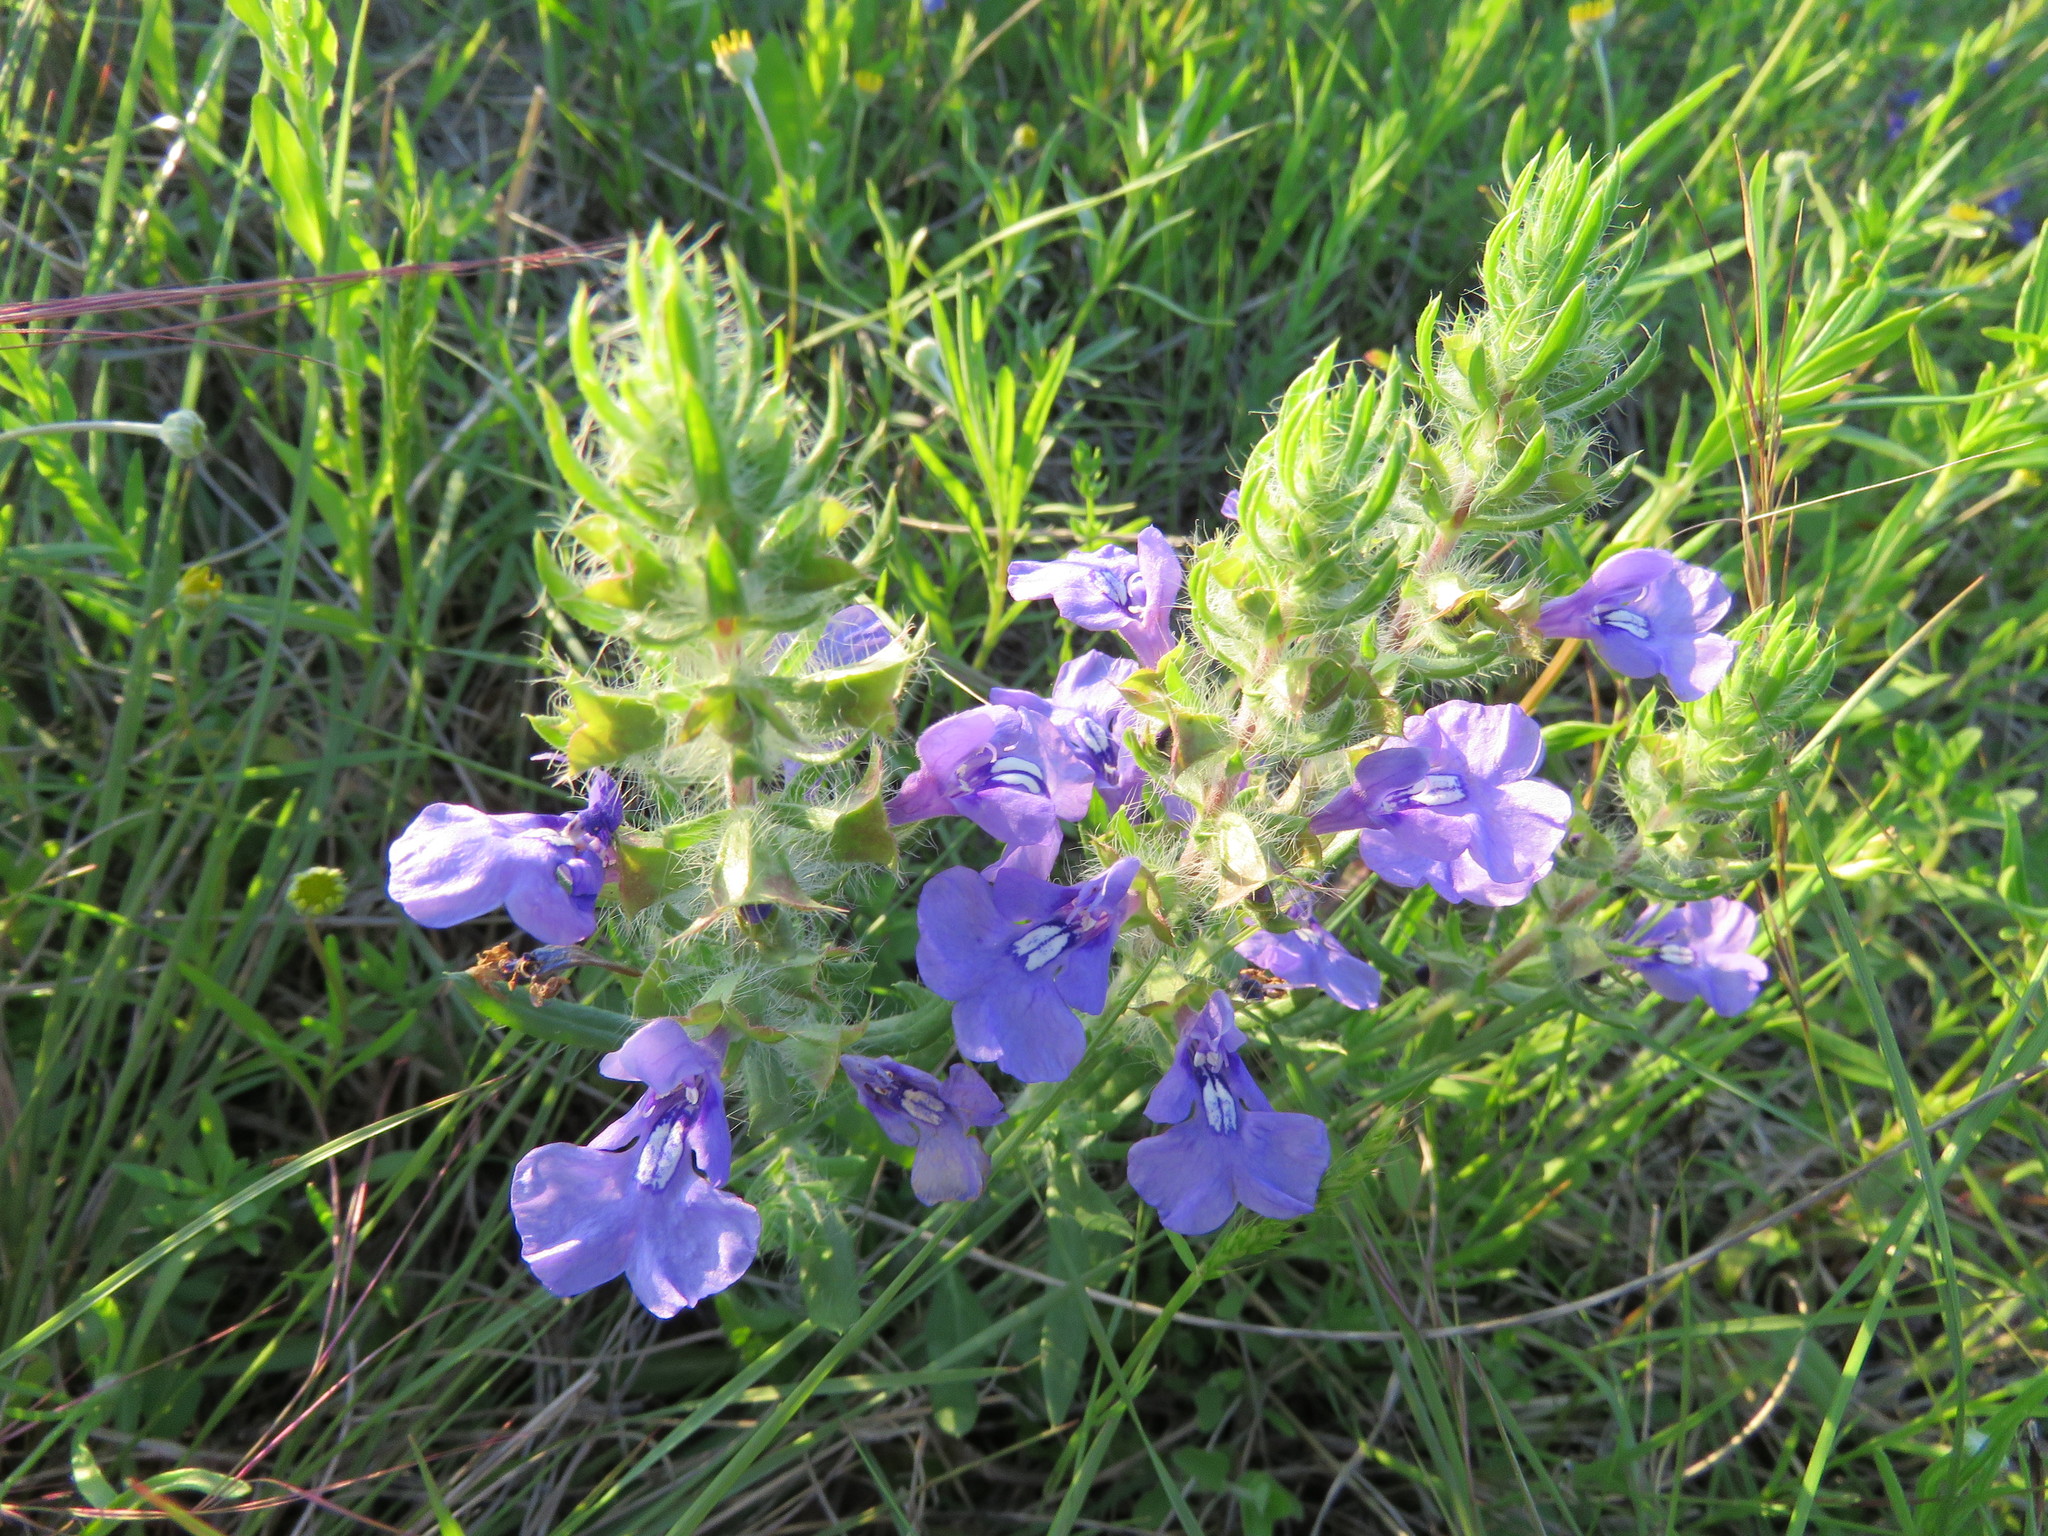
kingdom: Plantae
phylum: Tracheophyta
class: Magnoliopsida
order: Lamiales
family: Lamiaceae
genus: Salvia
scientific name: Salvia texana
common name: Texas sage
